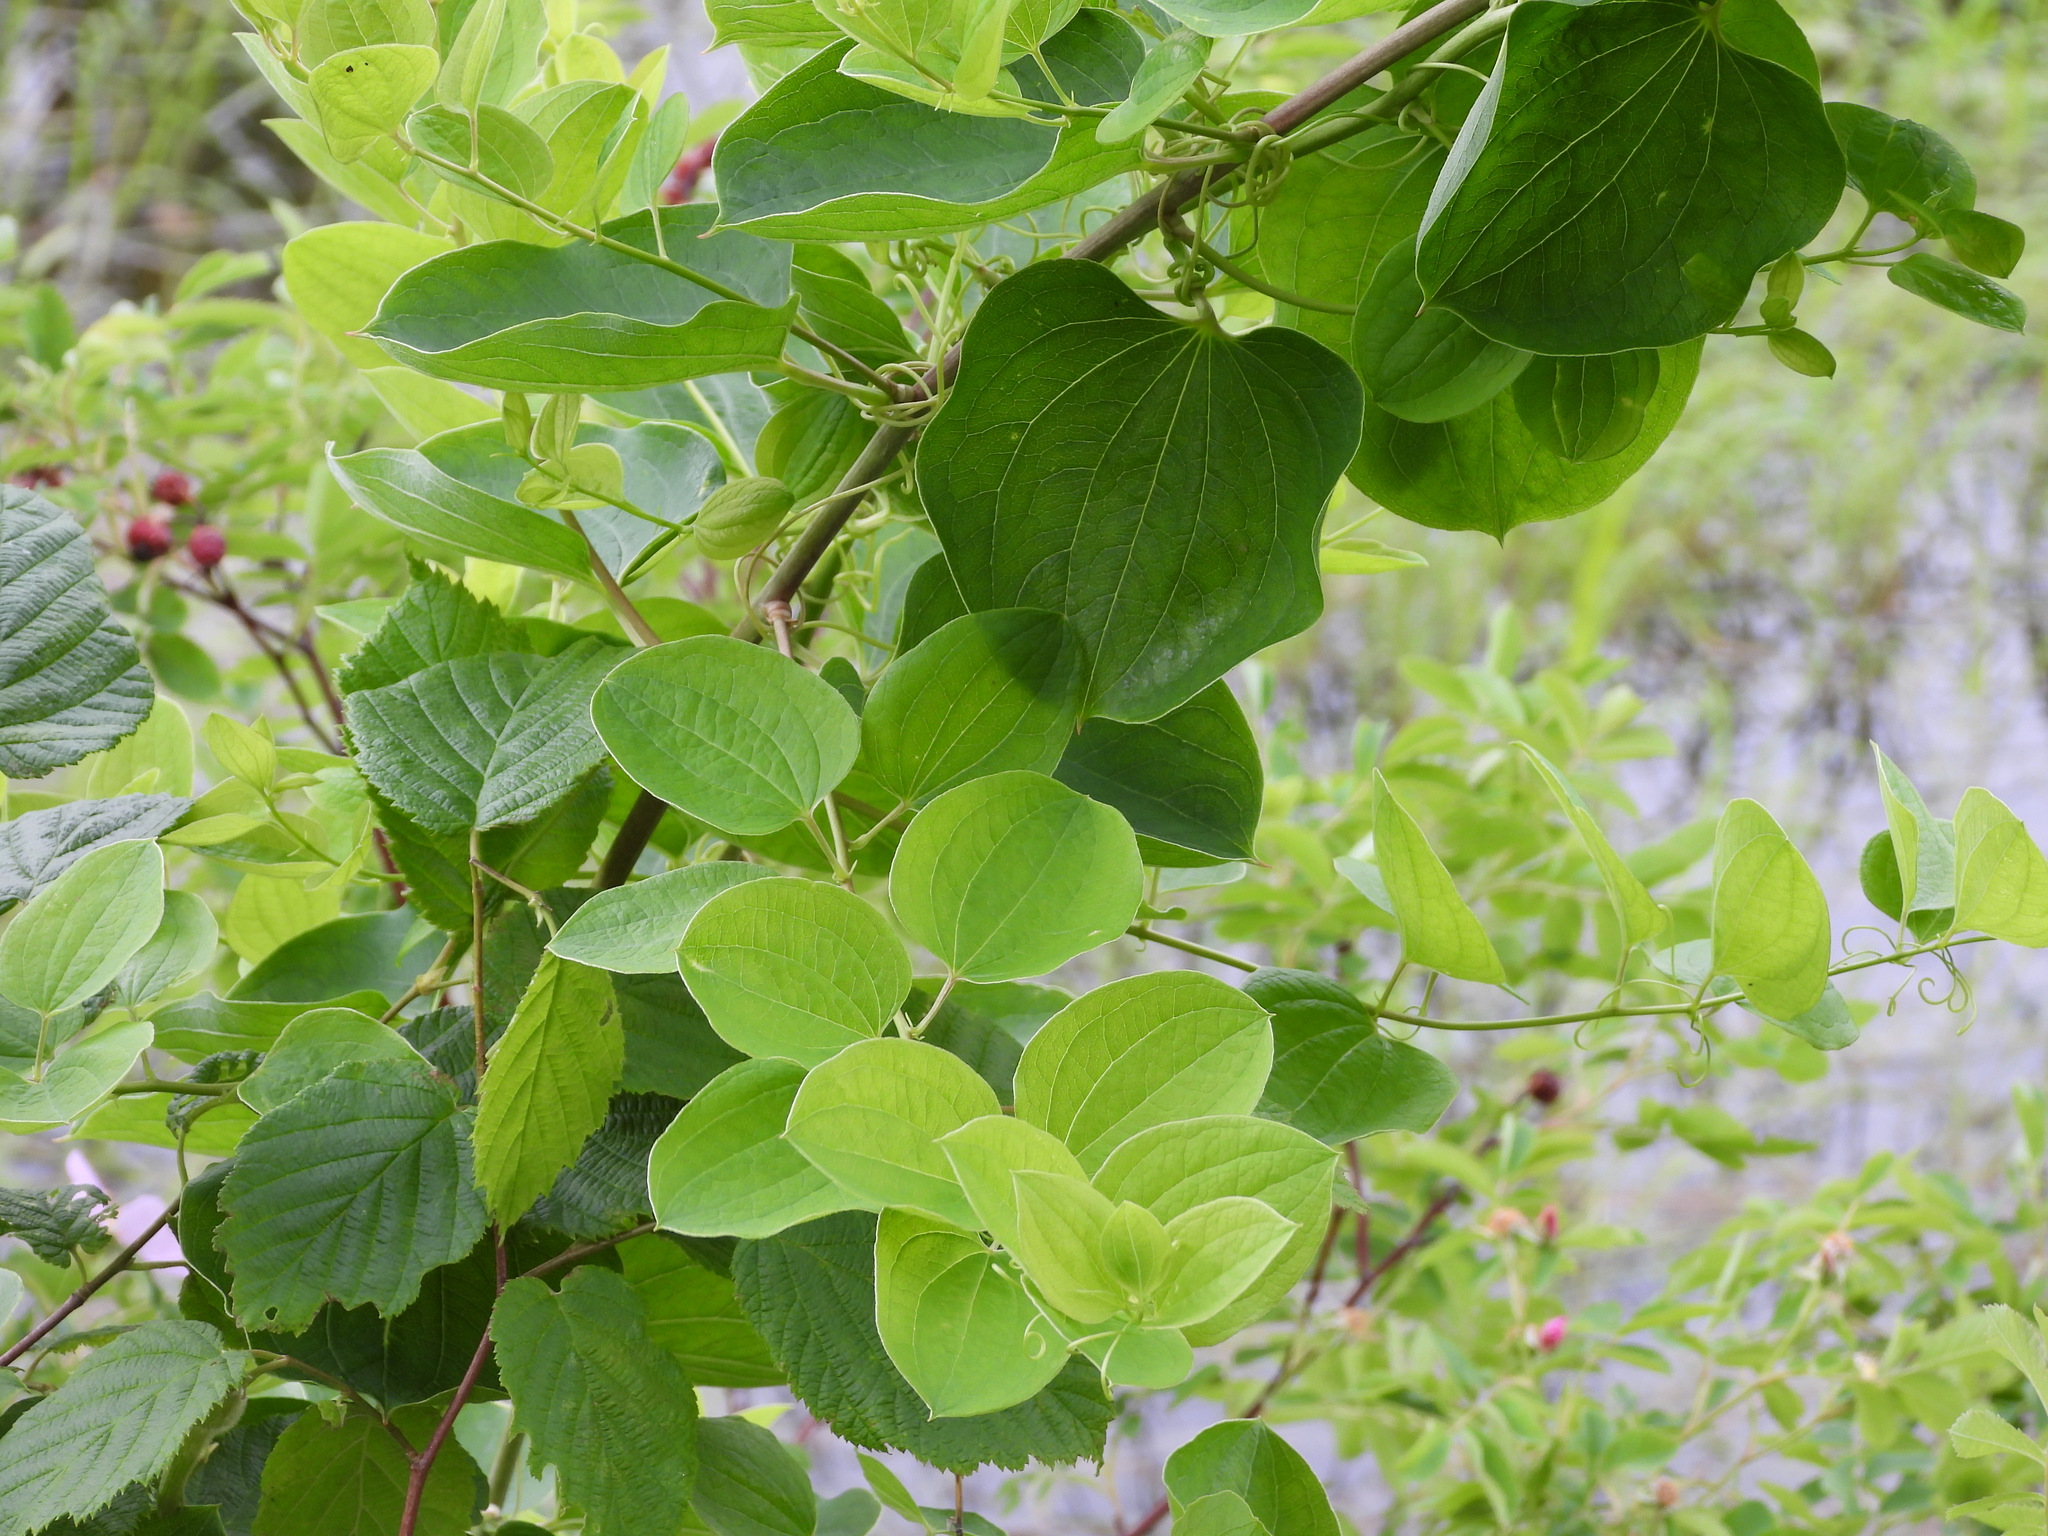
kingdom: Plantae
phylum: Tracheophyta
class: Liliopsida
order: Liliales
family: Smilacaceae
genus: Smilax
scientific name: Smilax lasioneura
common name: Blue ridge carrionflower
